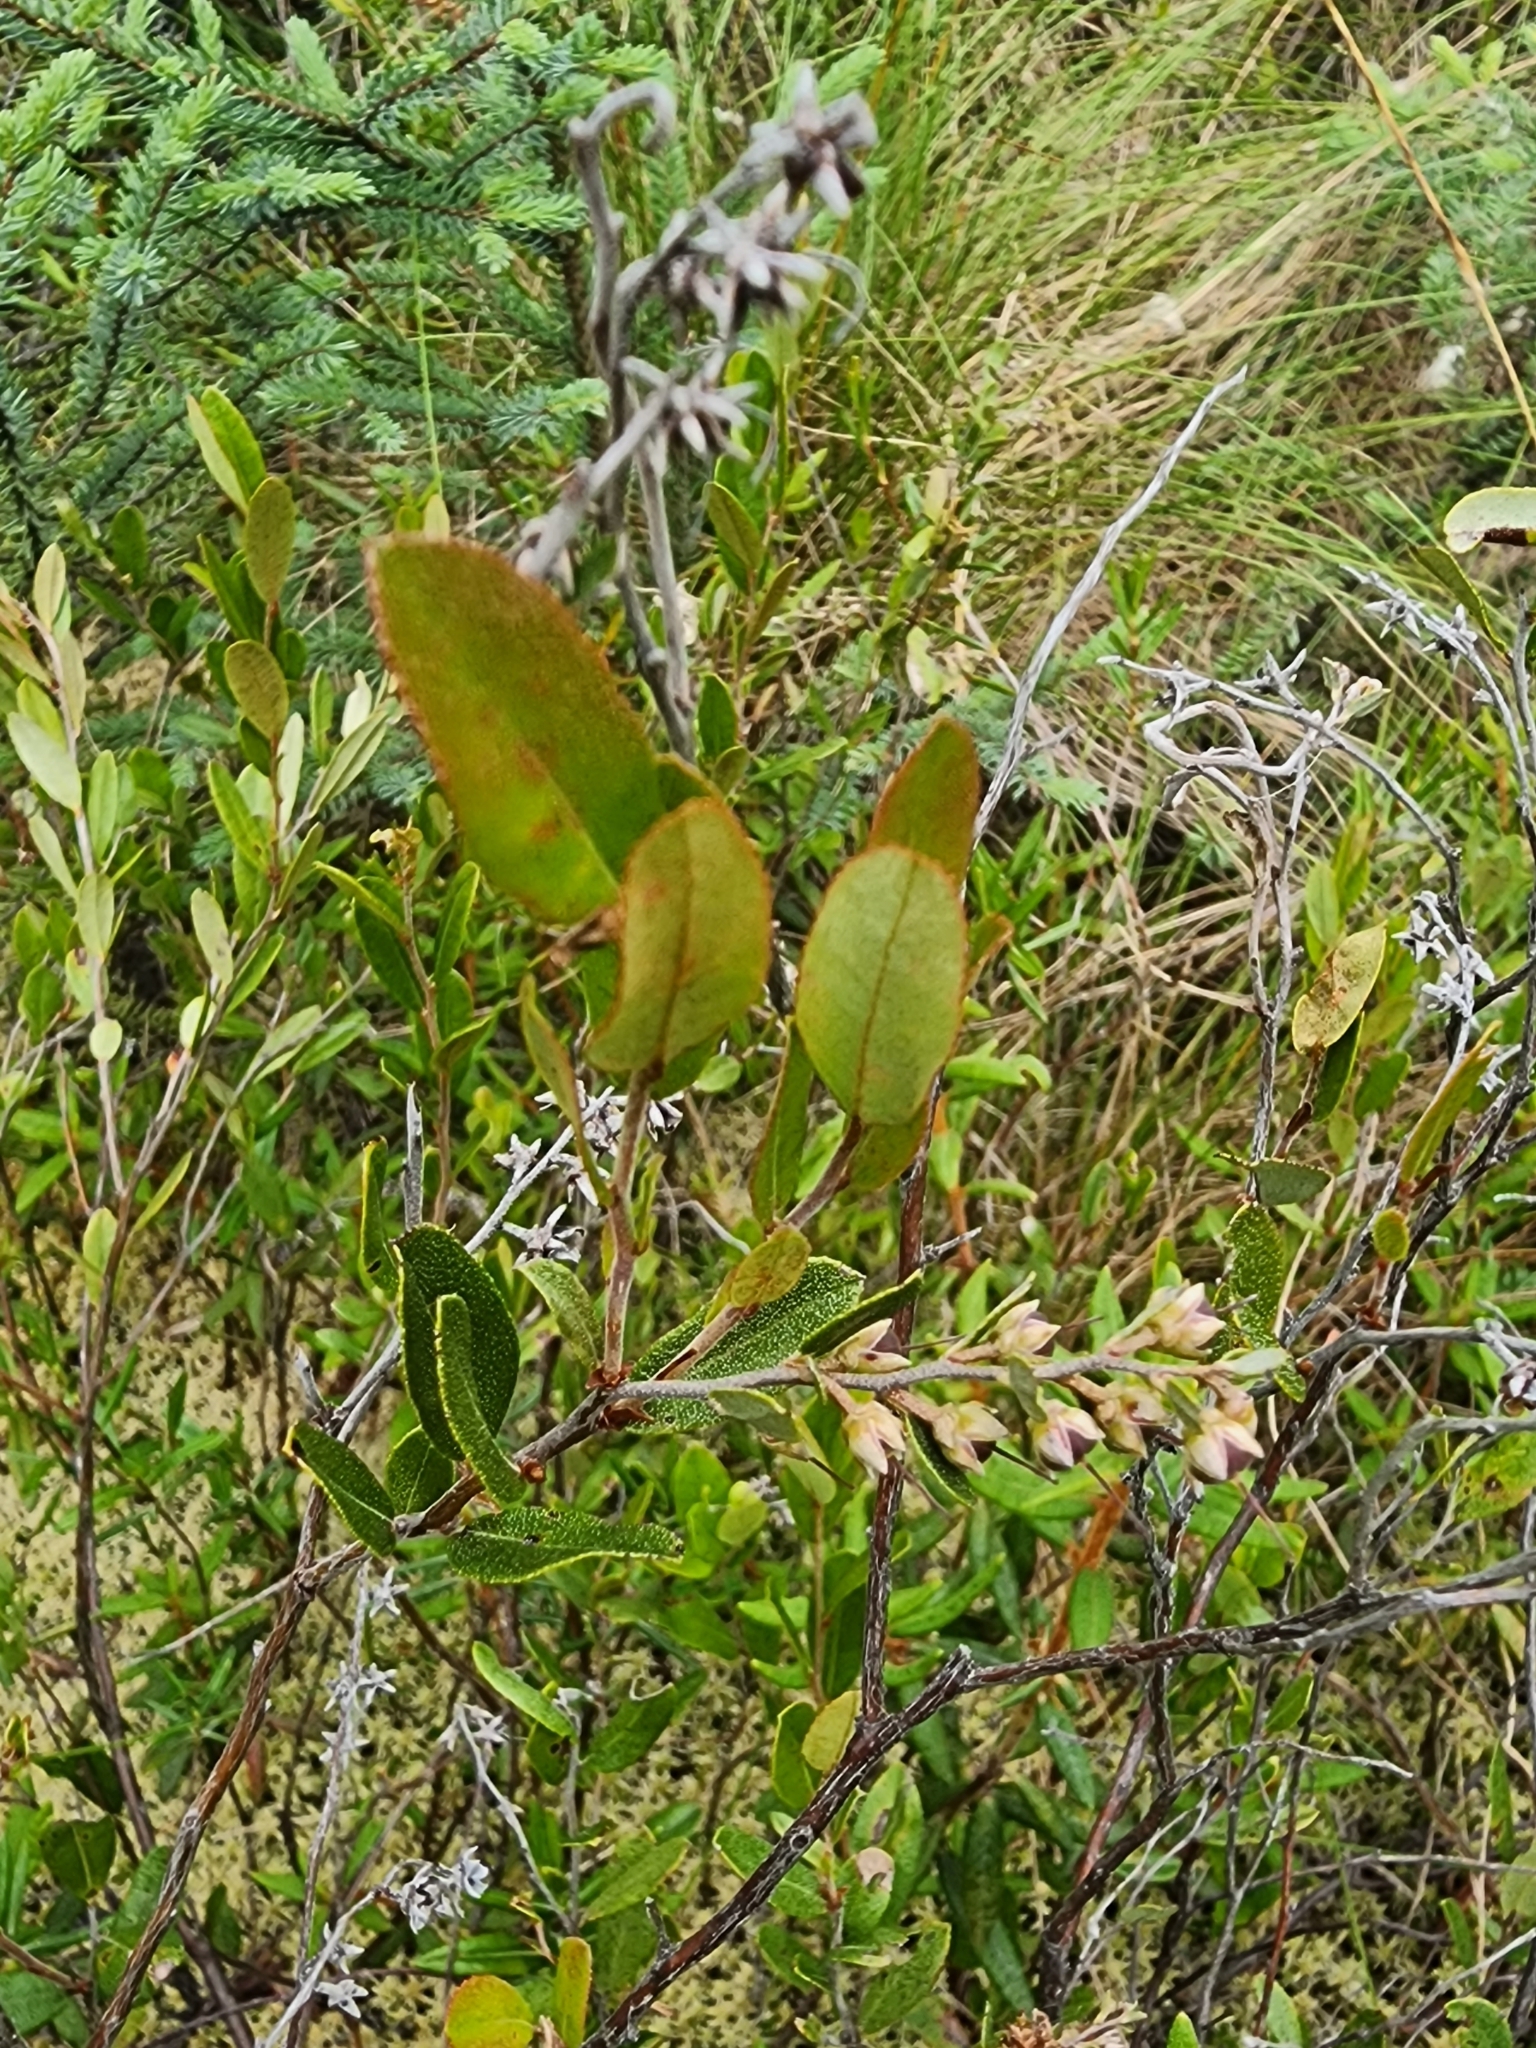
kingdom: Plantae
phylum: Tracheophyta
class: Magnoliopsida
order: Ericales
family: Ericaceae
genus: Chamaedaphne
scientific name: Chamaedaphne calyculata
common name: Leatherleaf
